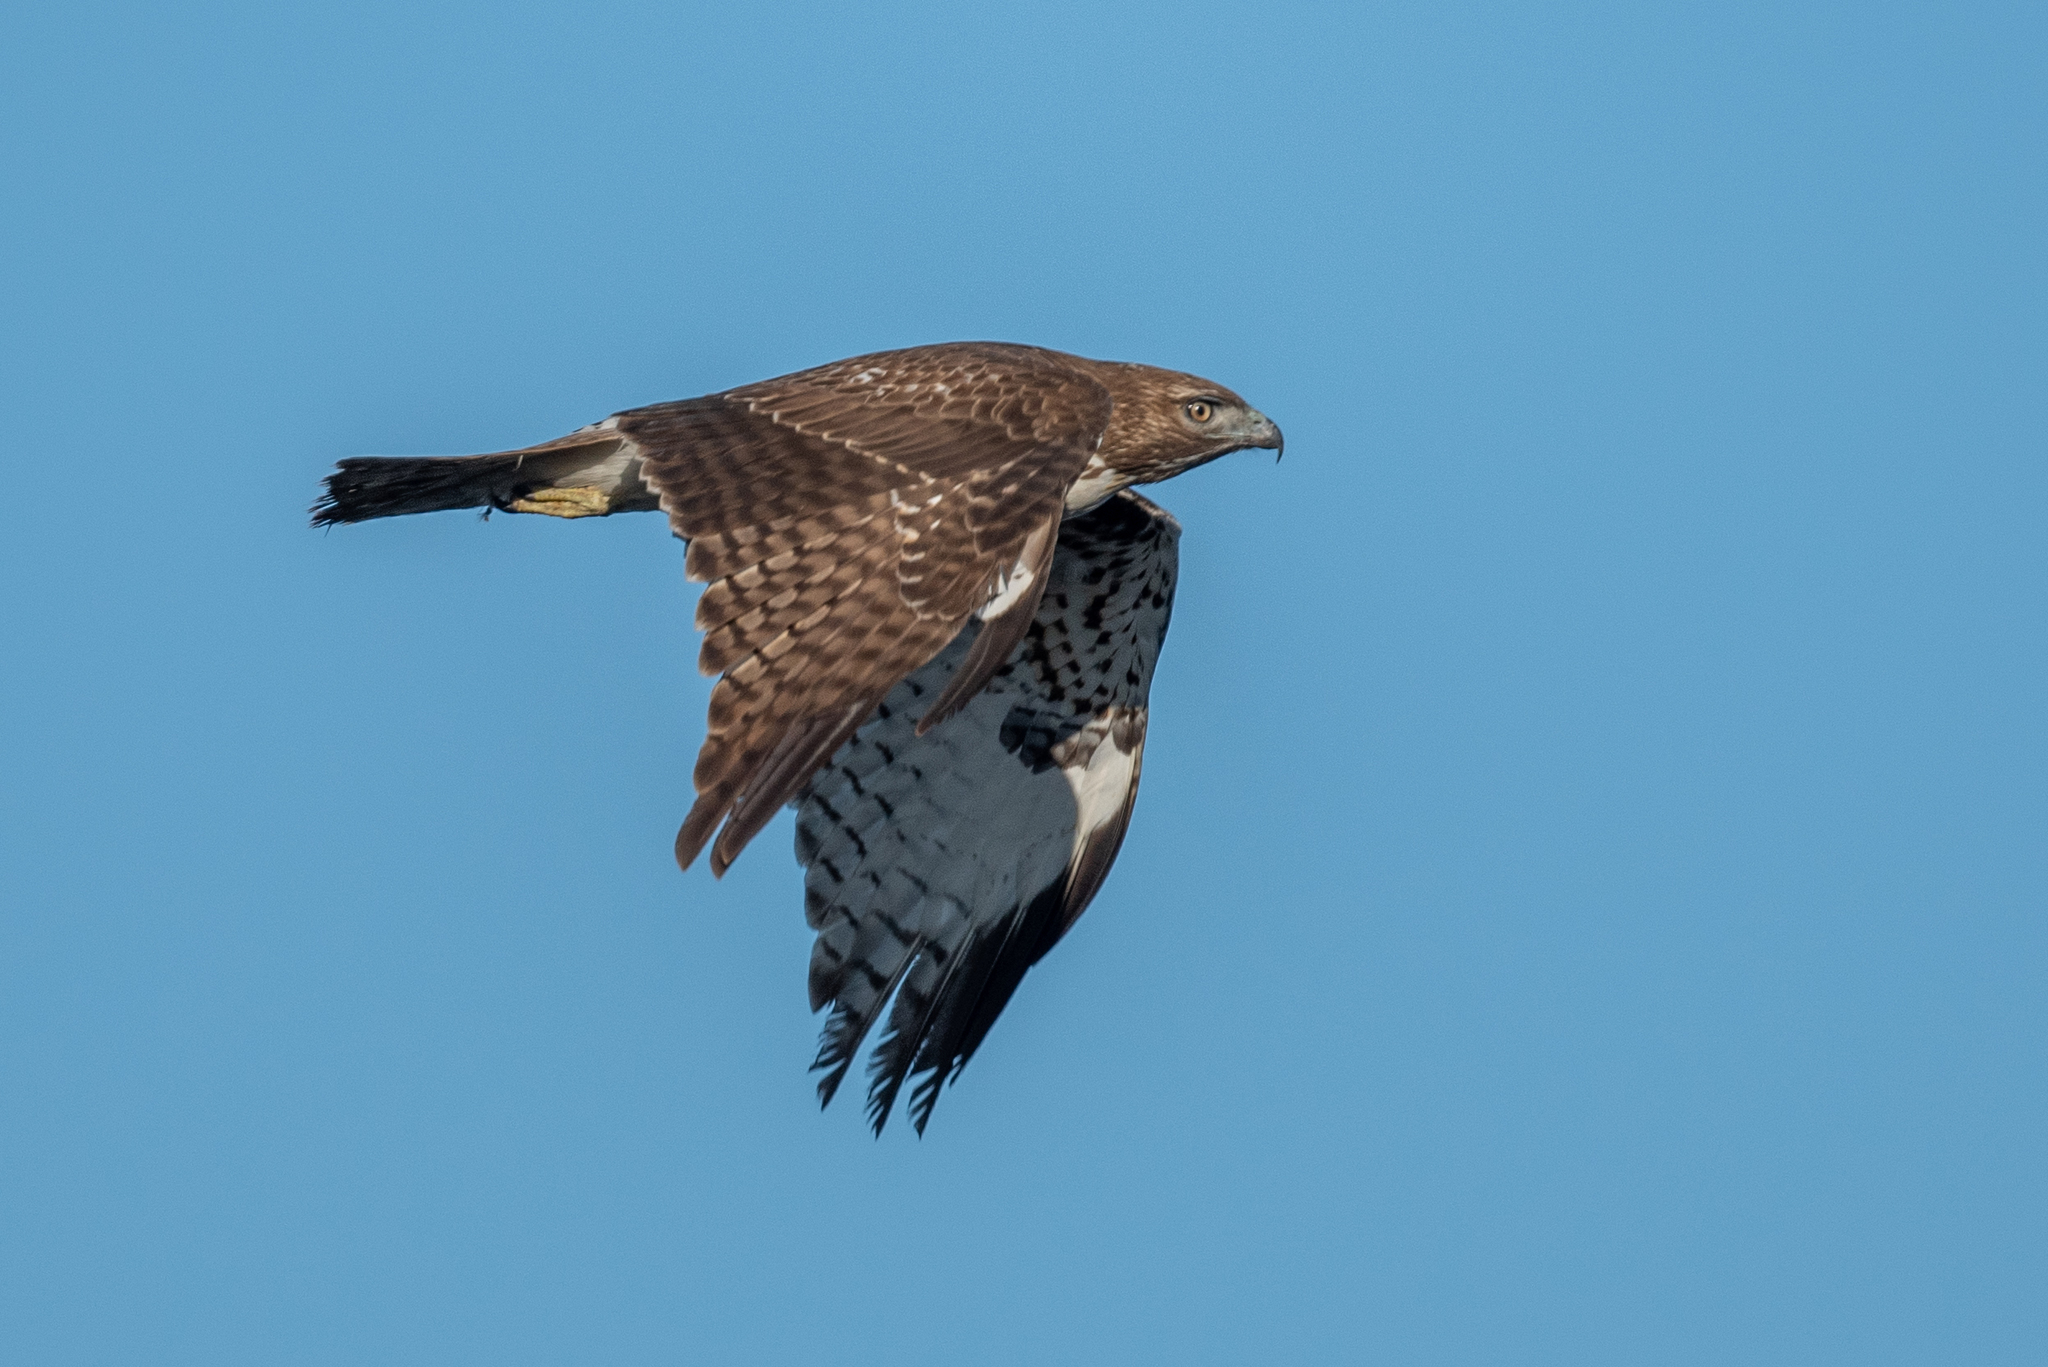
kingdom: Animalia
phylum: Chordata
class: Aves
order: Accipitriformes
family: Accipitridae
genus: Buteo
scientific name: Buteo jamaicensis
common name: Red-tailed hawk
